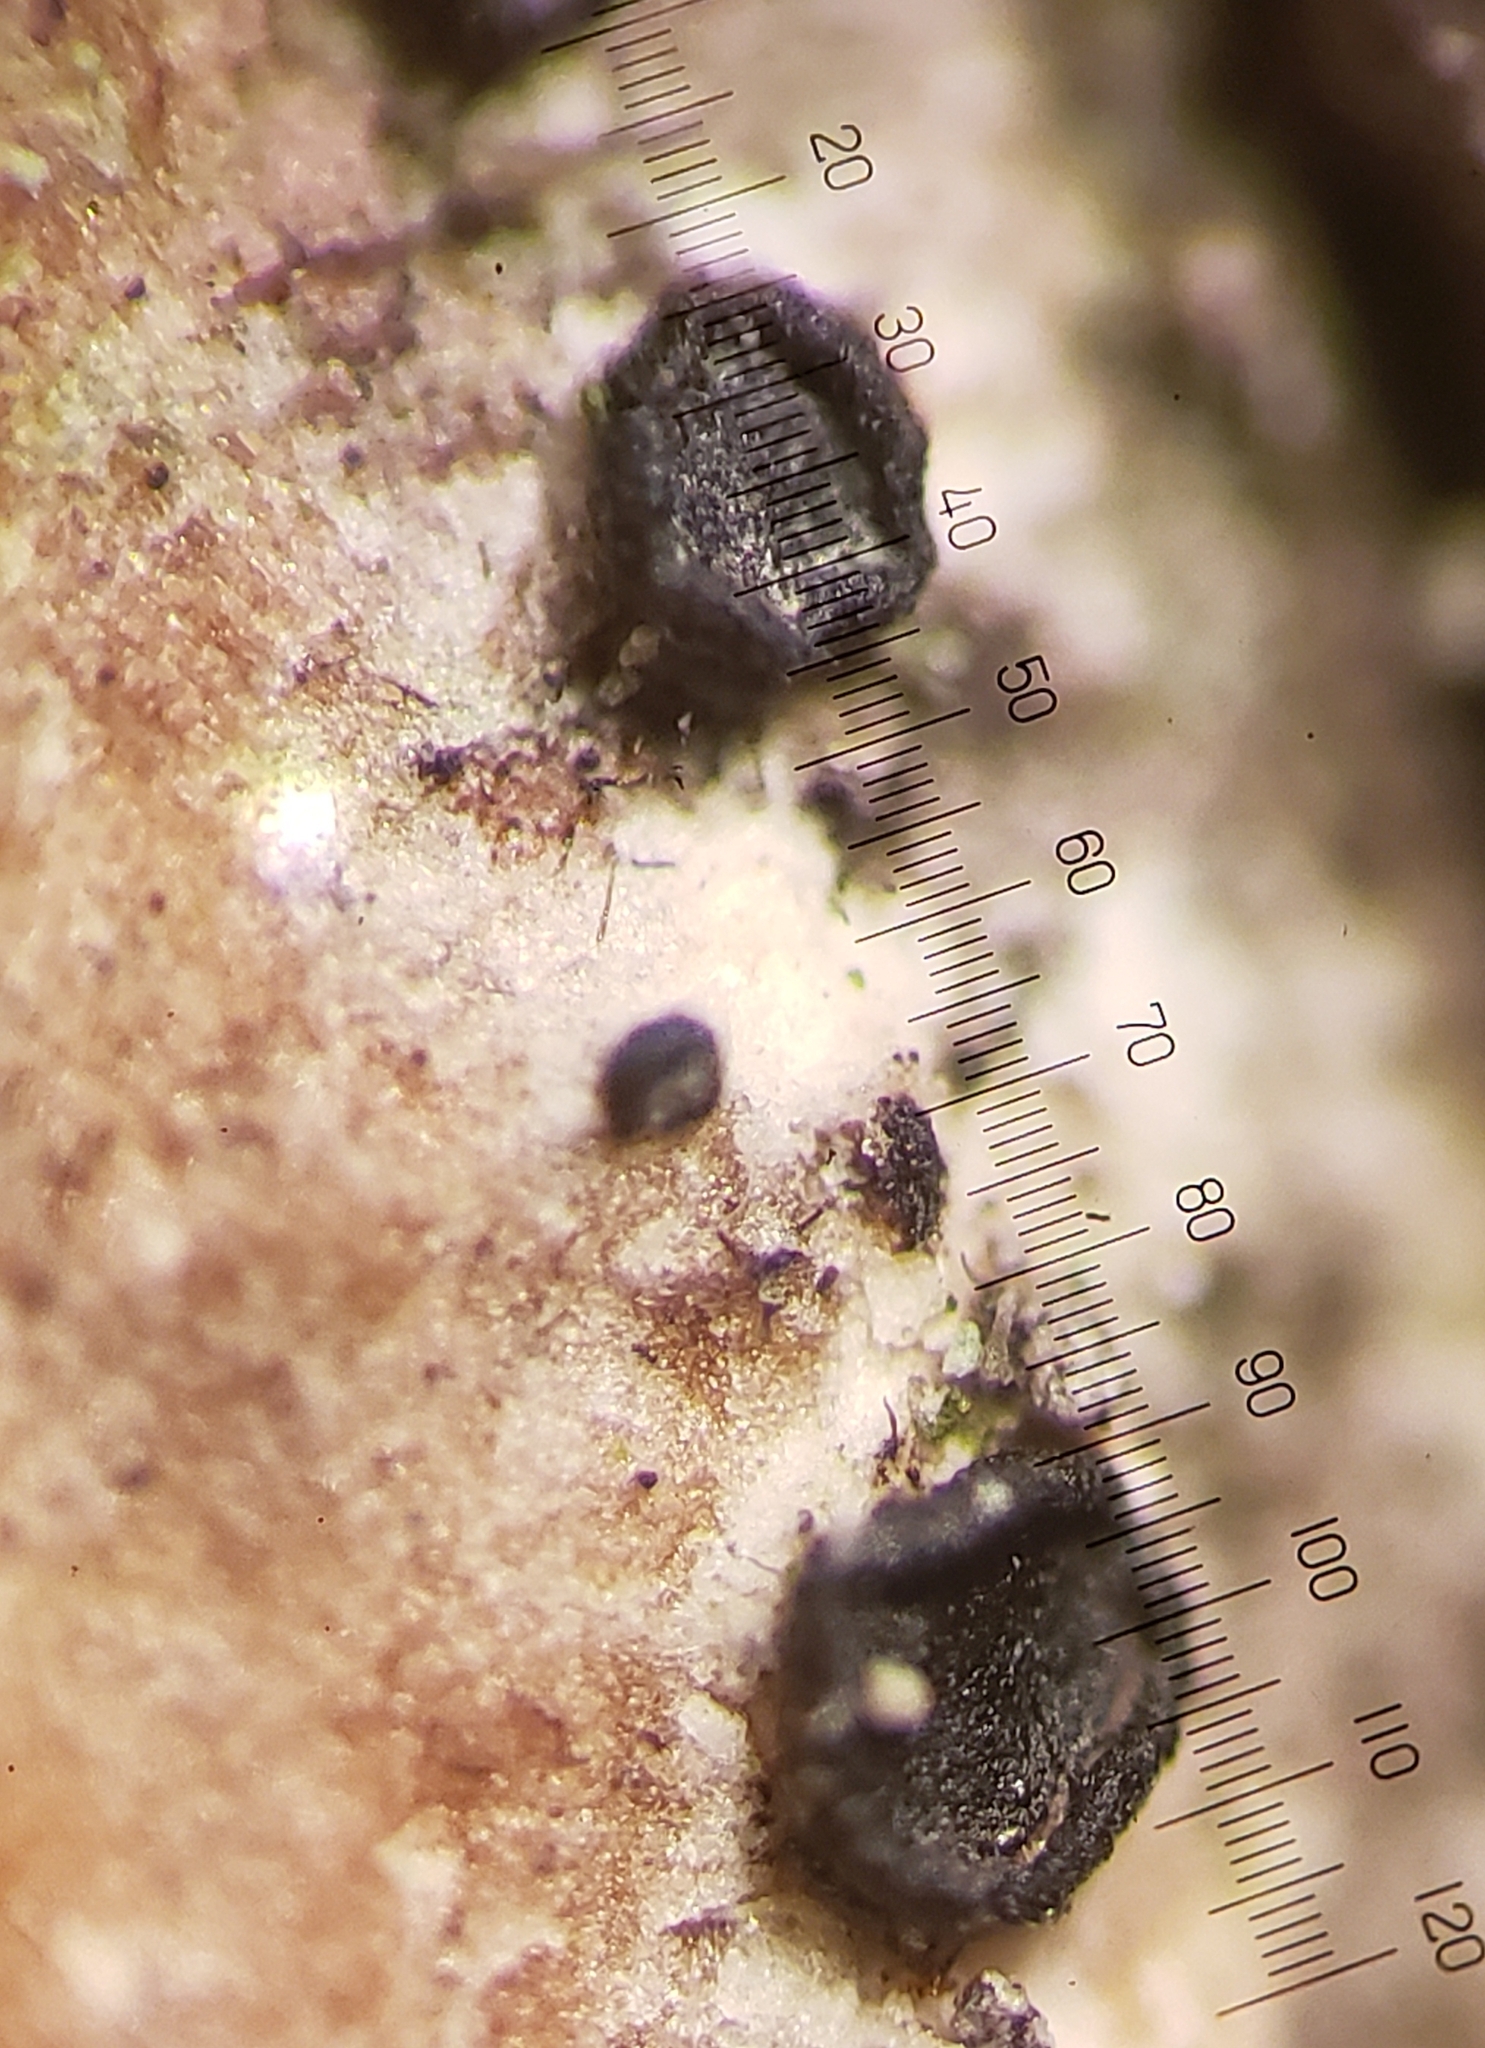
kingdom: Fungi
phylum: Ascomycota
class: Arthoniomycetes
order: Arthoniales
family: Opegraphaceae
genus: Cresponea
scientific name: Cresponea chloroconia
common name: Greenish old-wood lichen
